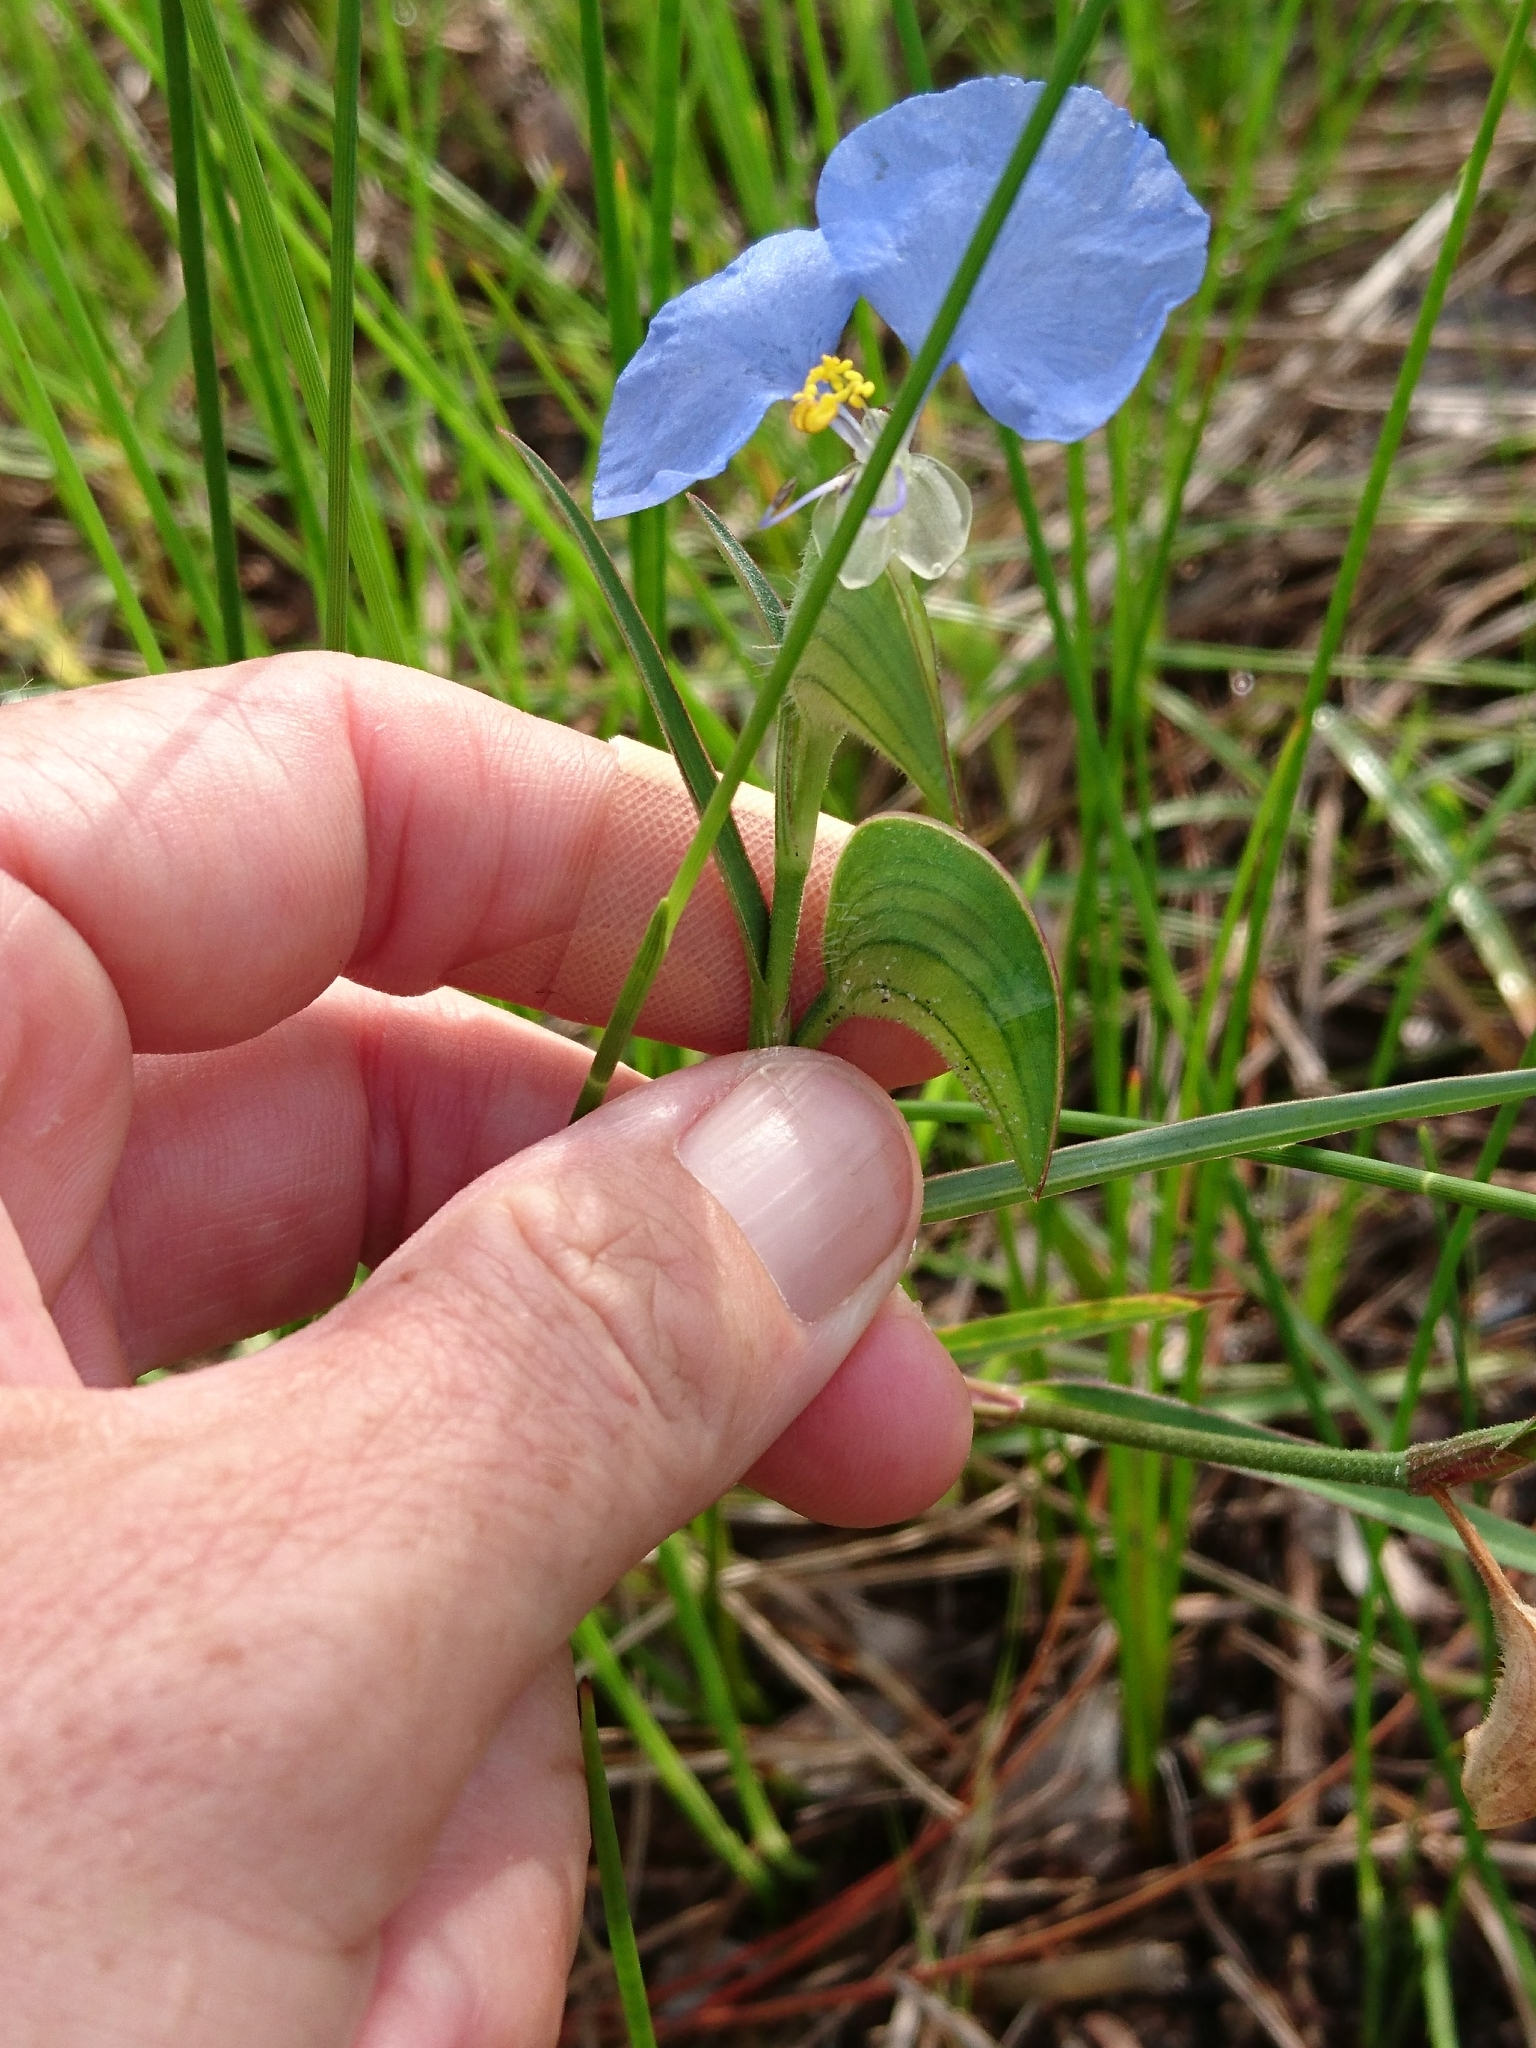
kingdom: Plantae
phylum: Tracheophyta
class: Liliopsida
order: Commelinales
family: Commelinaceae
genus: Commelina
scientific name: Commelina erecta
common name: Blousel blommetjie
